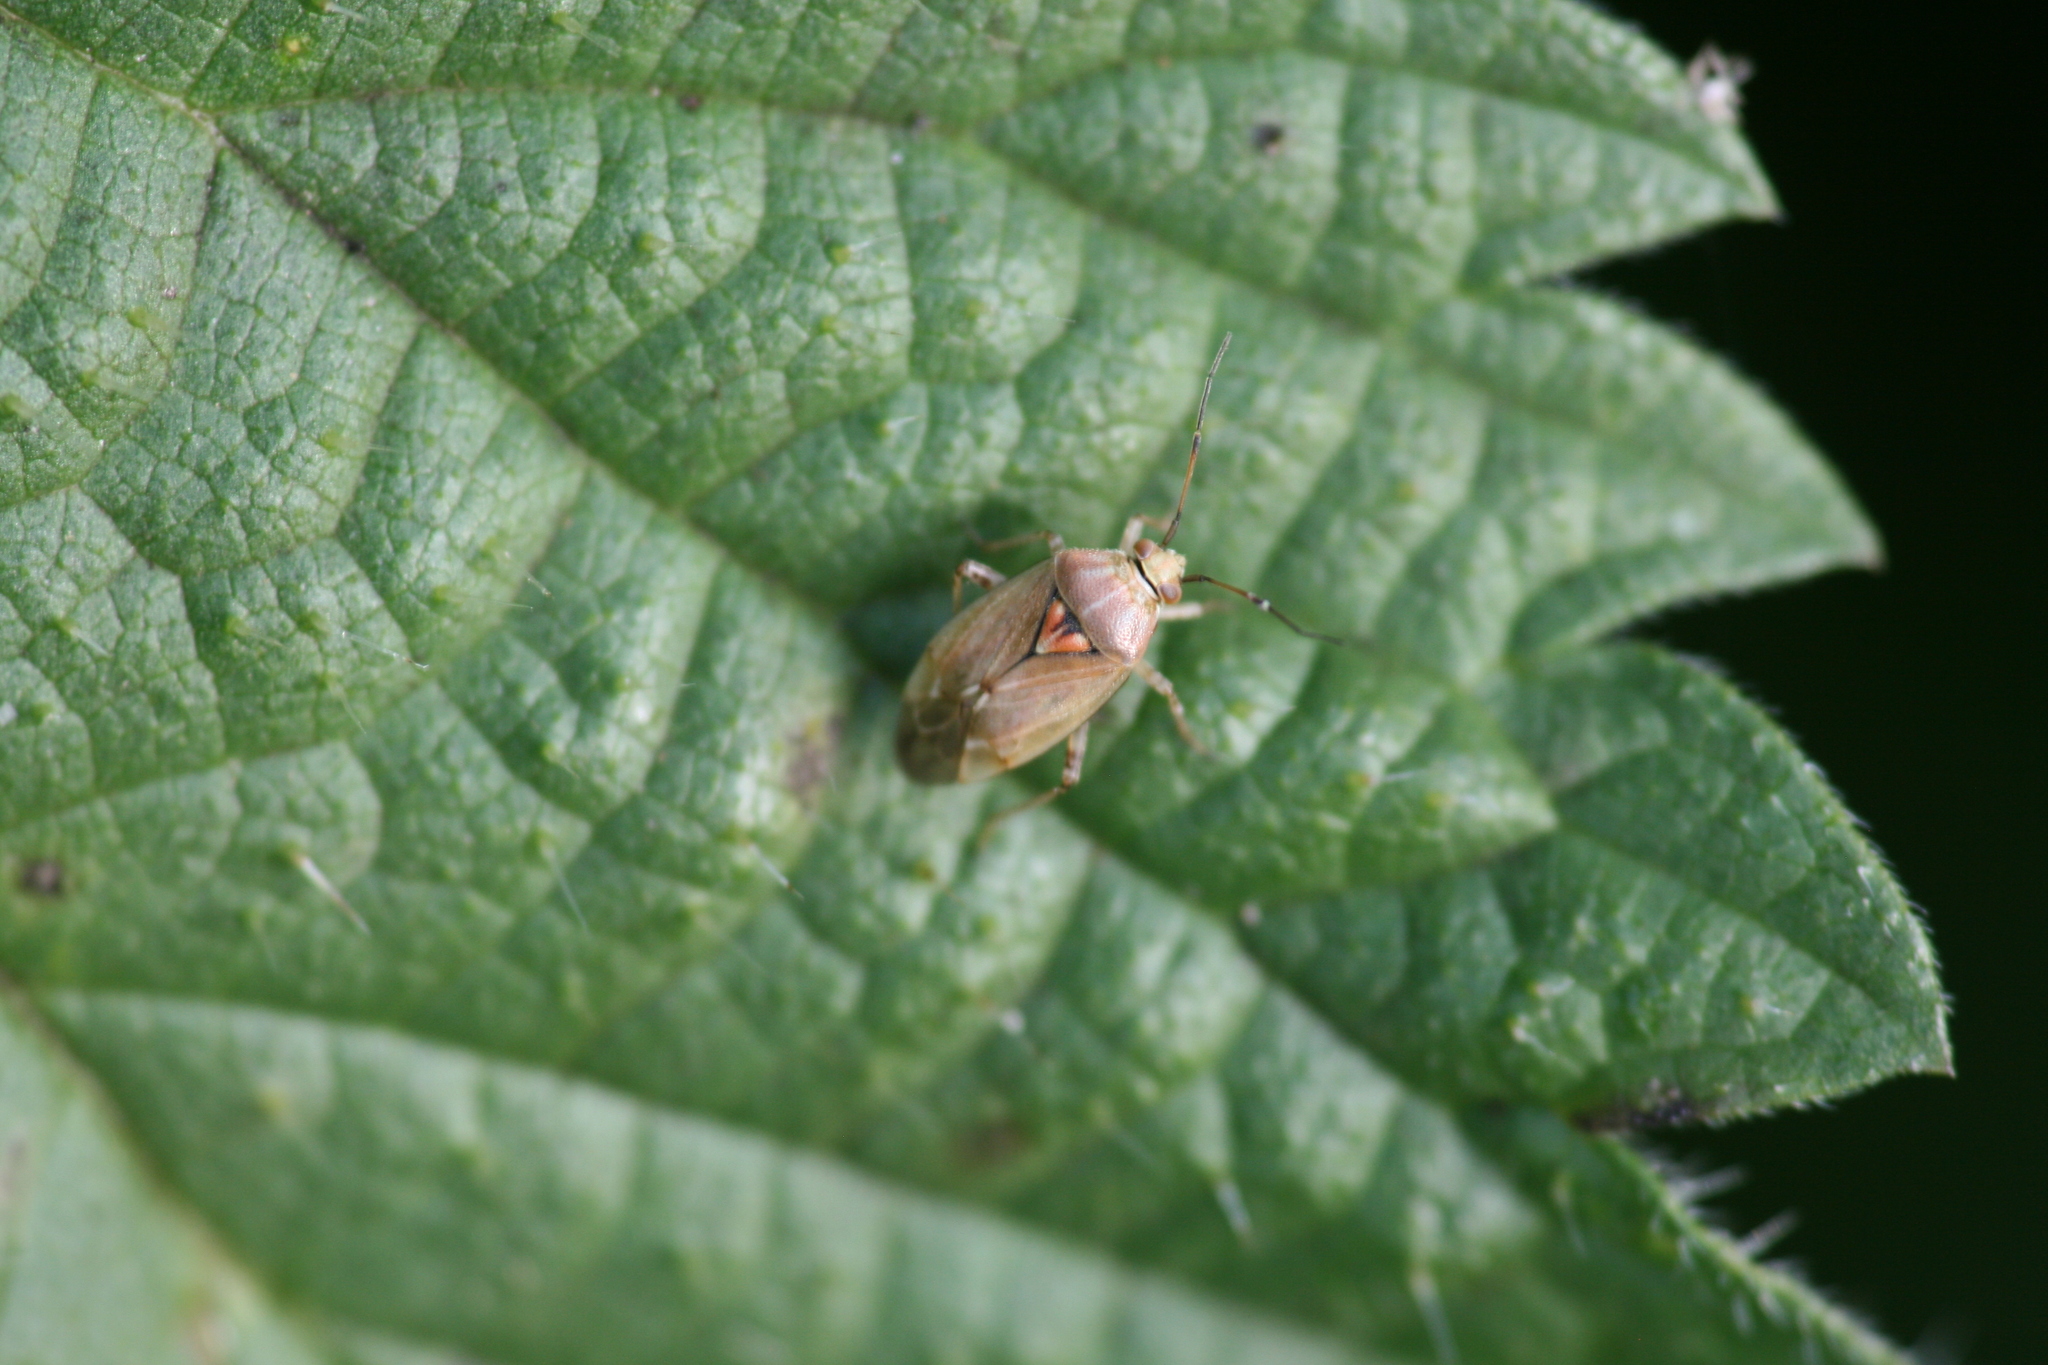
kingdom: Animalia
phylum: Arthropoda
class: Insecta
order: Hemiptera
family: Miridae
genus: Lygus
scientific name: Lygus rugulipennis
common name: European tarnished plant bug
